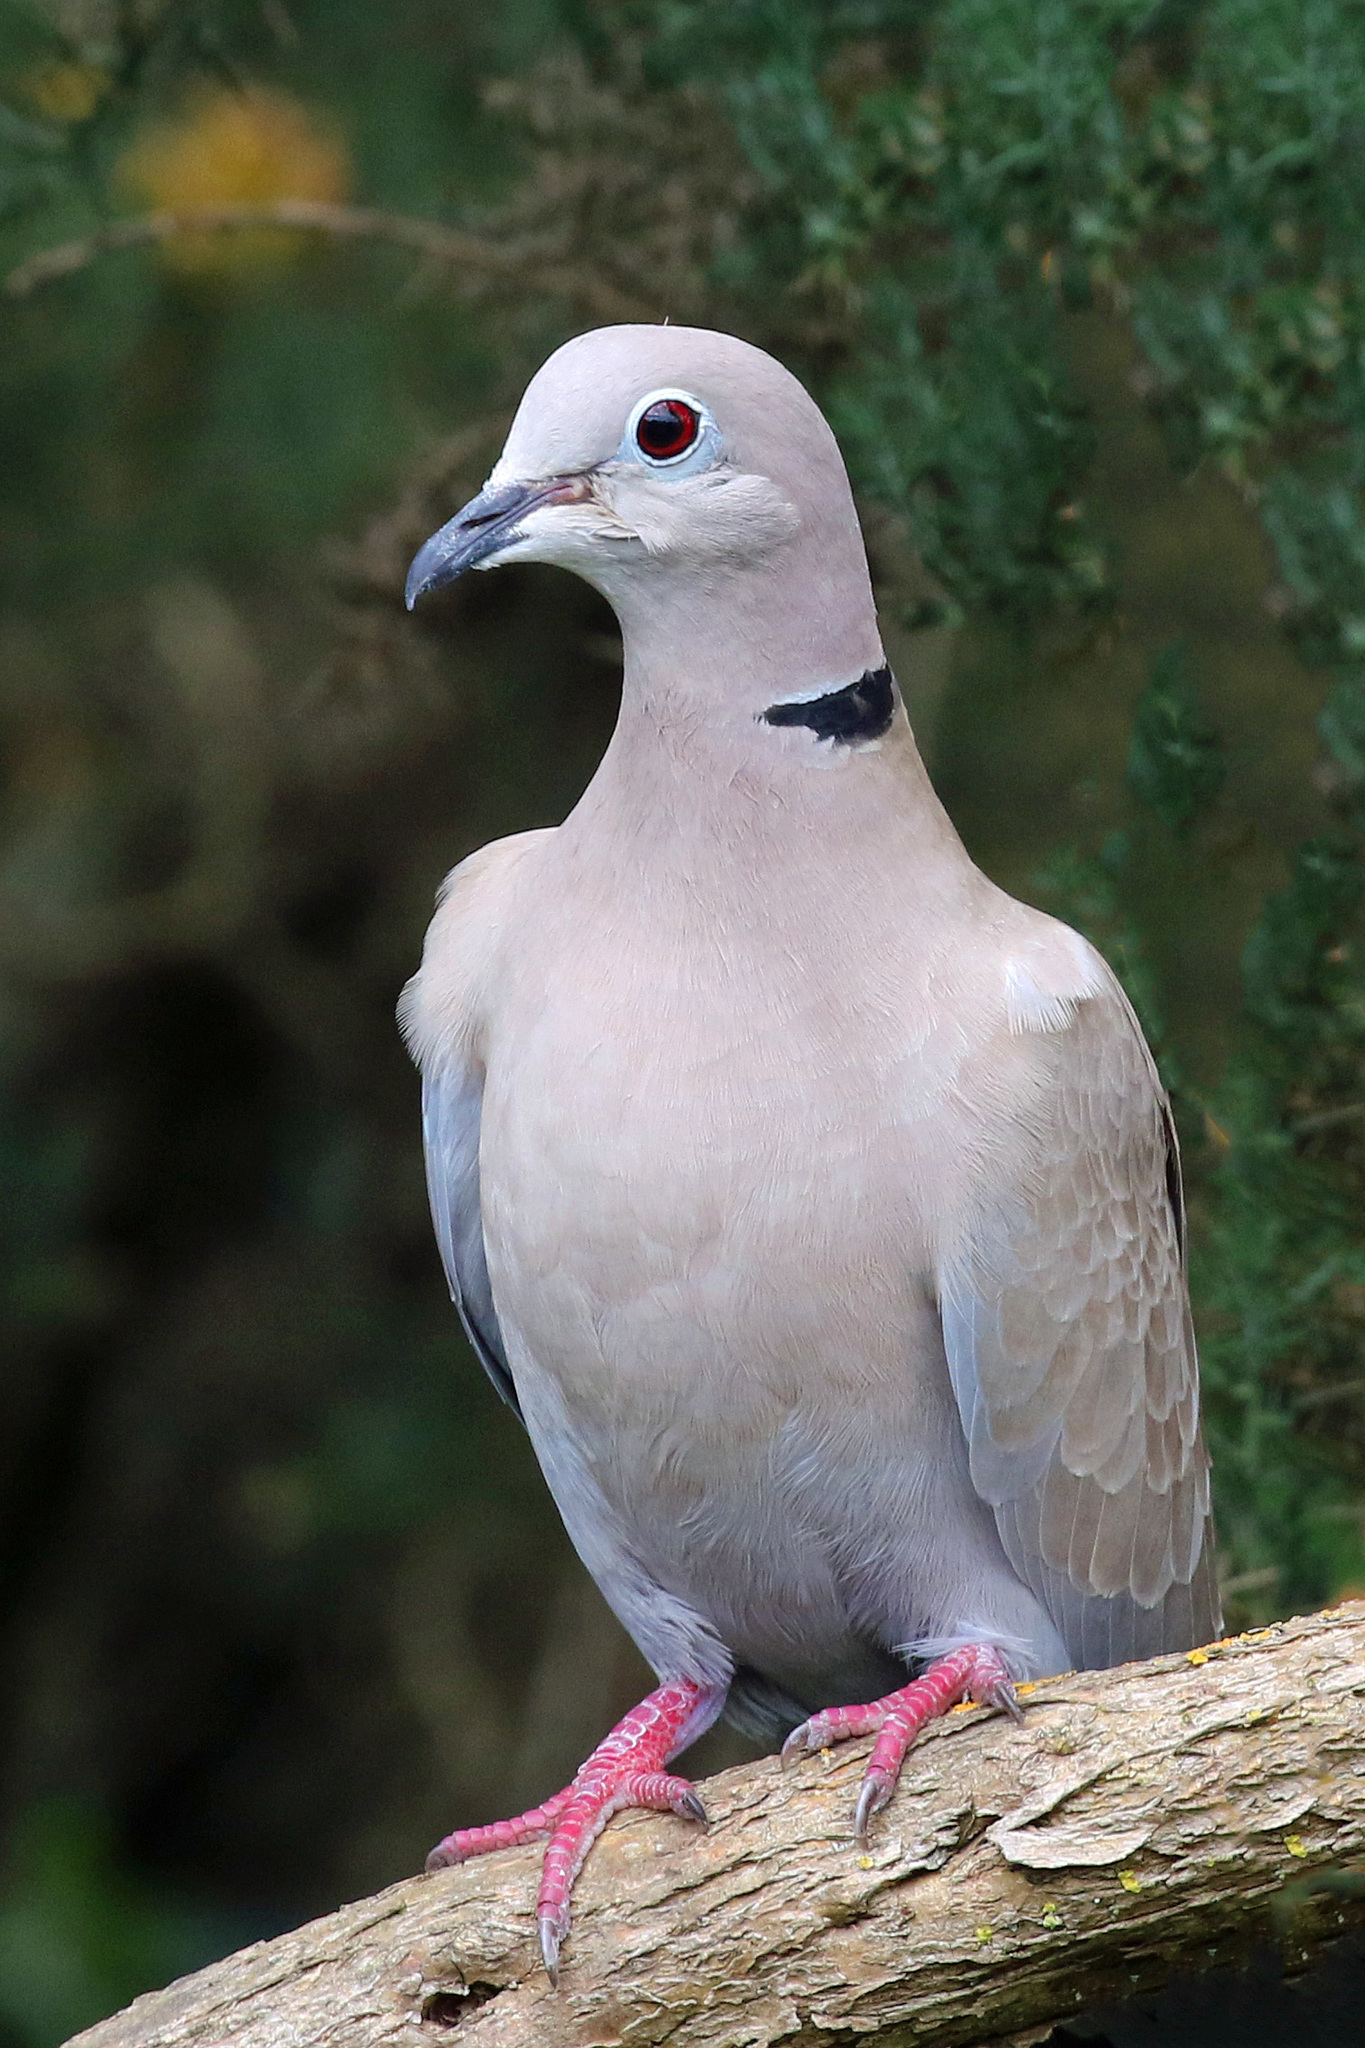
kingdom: Animalia
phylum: Chordata
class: Aves
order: Columbiformes
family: Columbidae
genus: Streptopelia
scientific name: Streptopelia decaocto
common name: Eurasian collared dove
